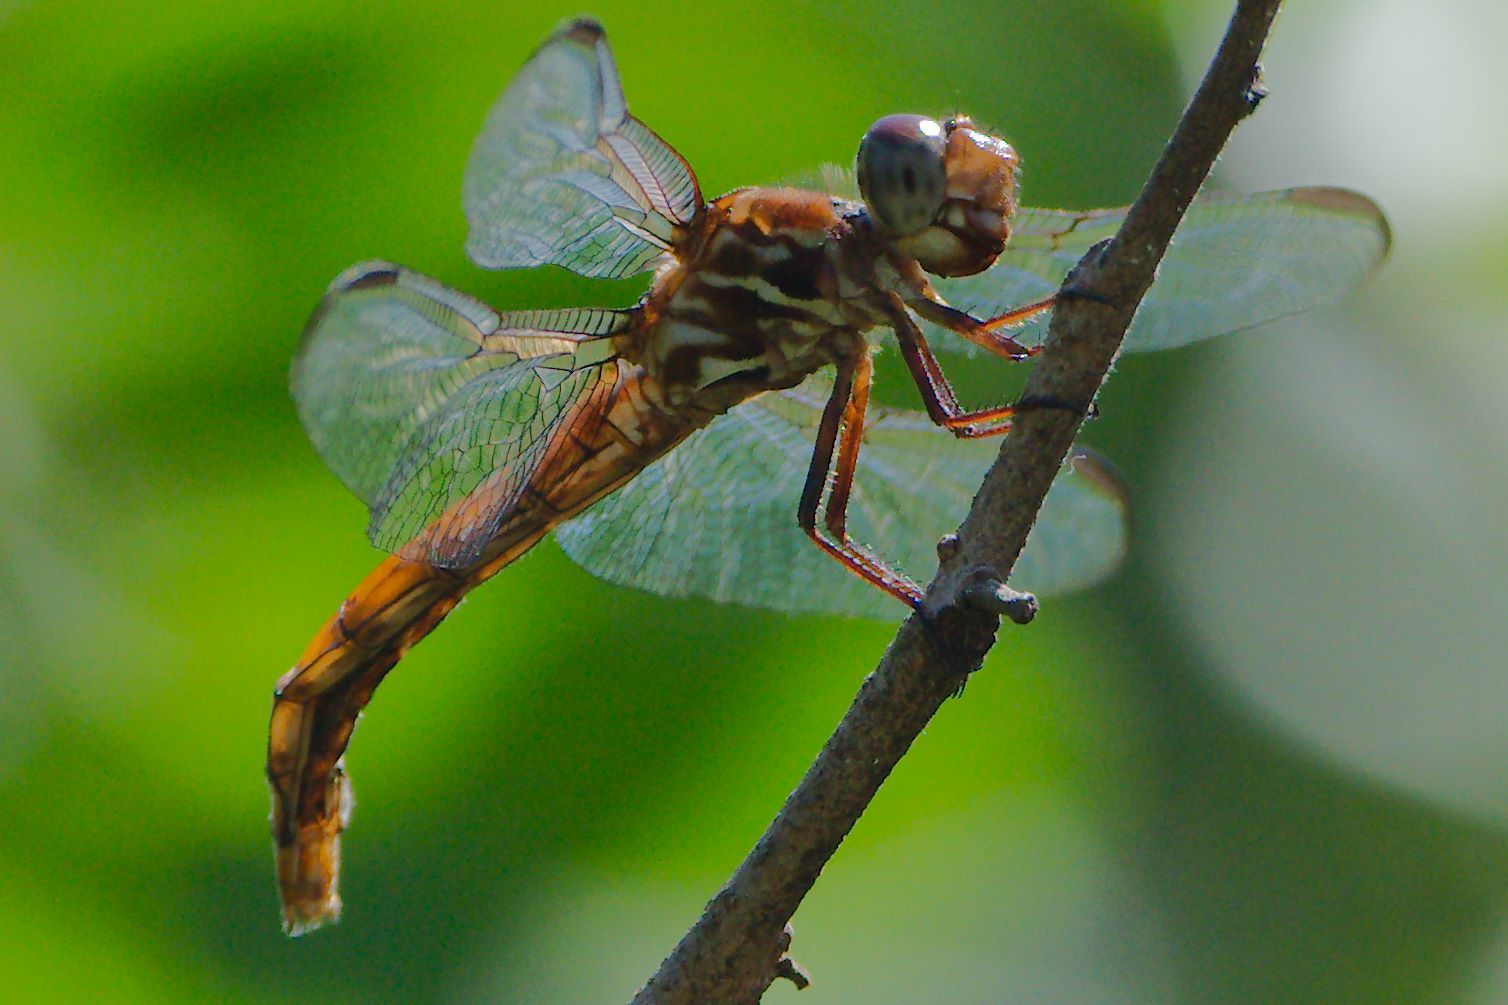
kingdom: Animalia
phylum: Arthropoda
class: Insecta
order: Odonata
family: Libellulidae
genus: Orthemis
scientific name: Orthemis ferruginea
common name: Roseate skimmer
